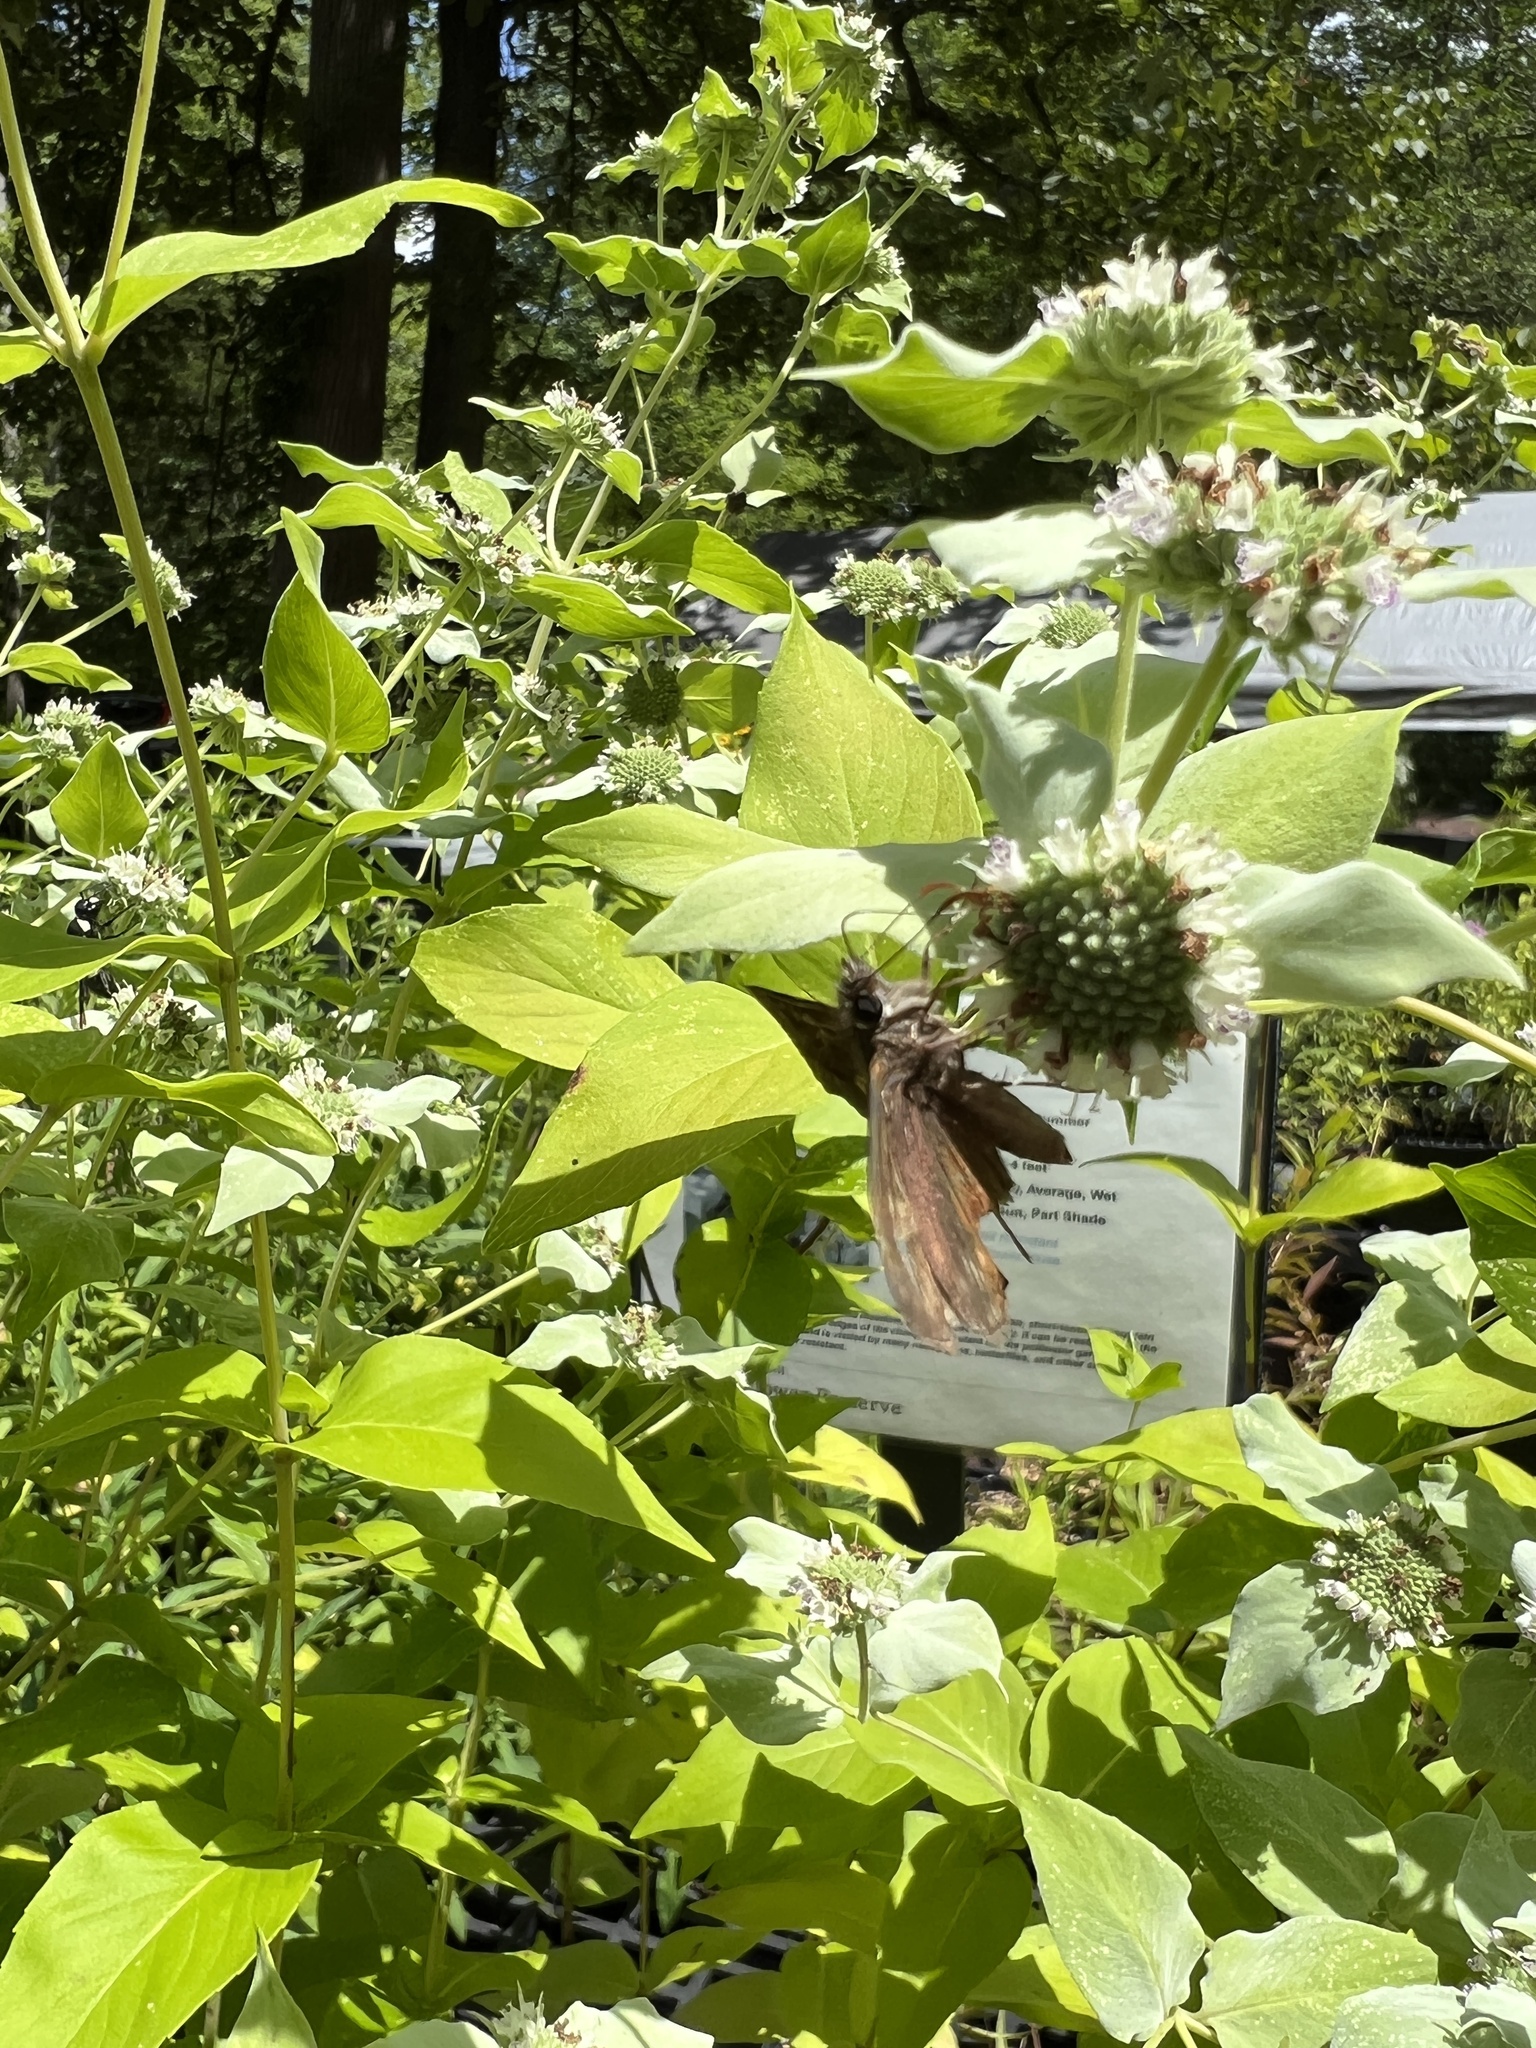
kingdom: Animalia
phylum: Arthropoda
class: Insecta
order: Lepidoptera
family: Hesperiidae
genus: Erynnis
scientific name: Erynnis horatius
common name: Horace's duskywing
